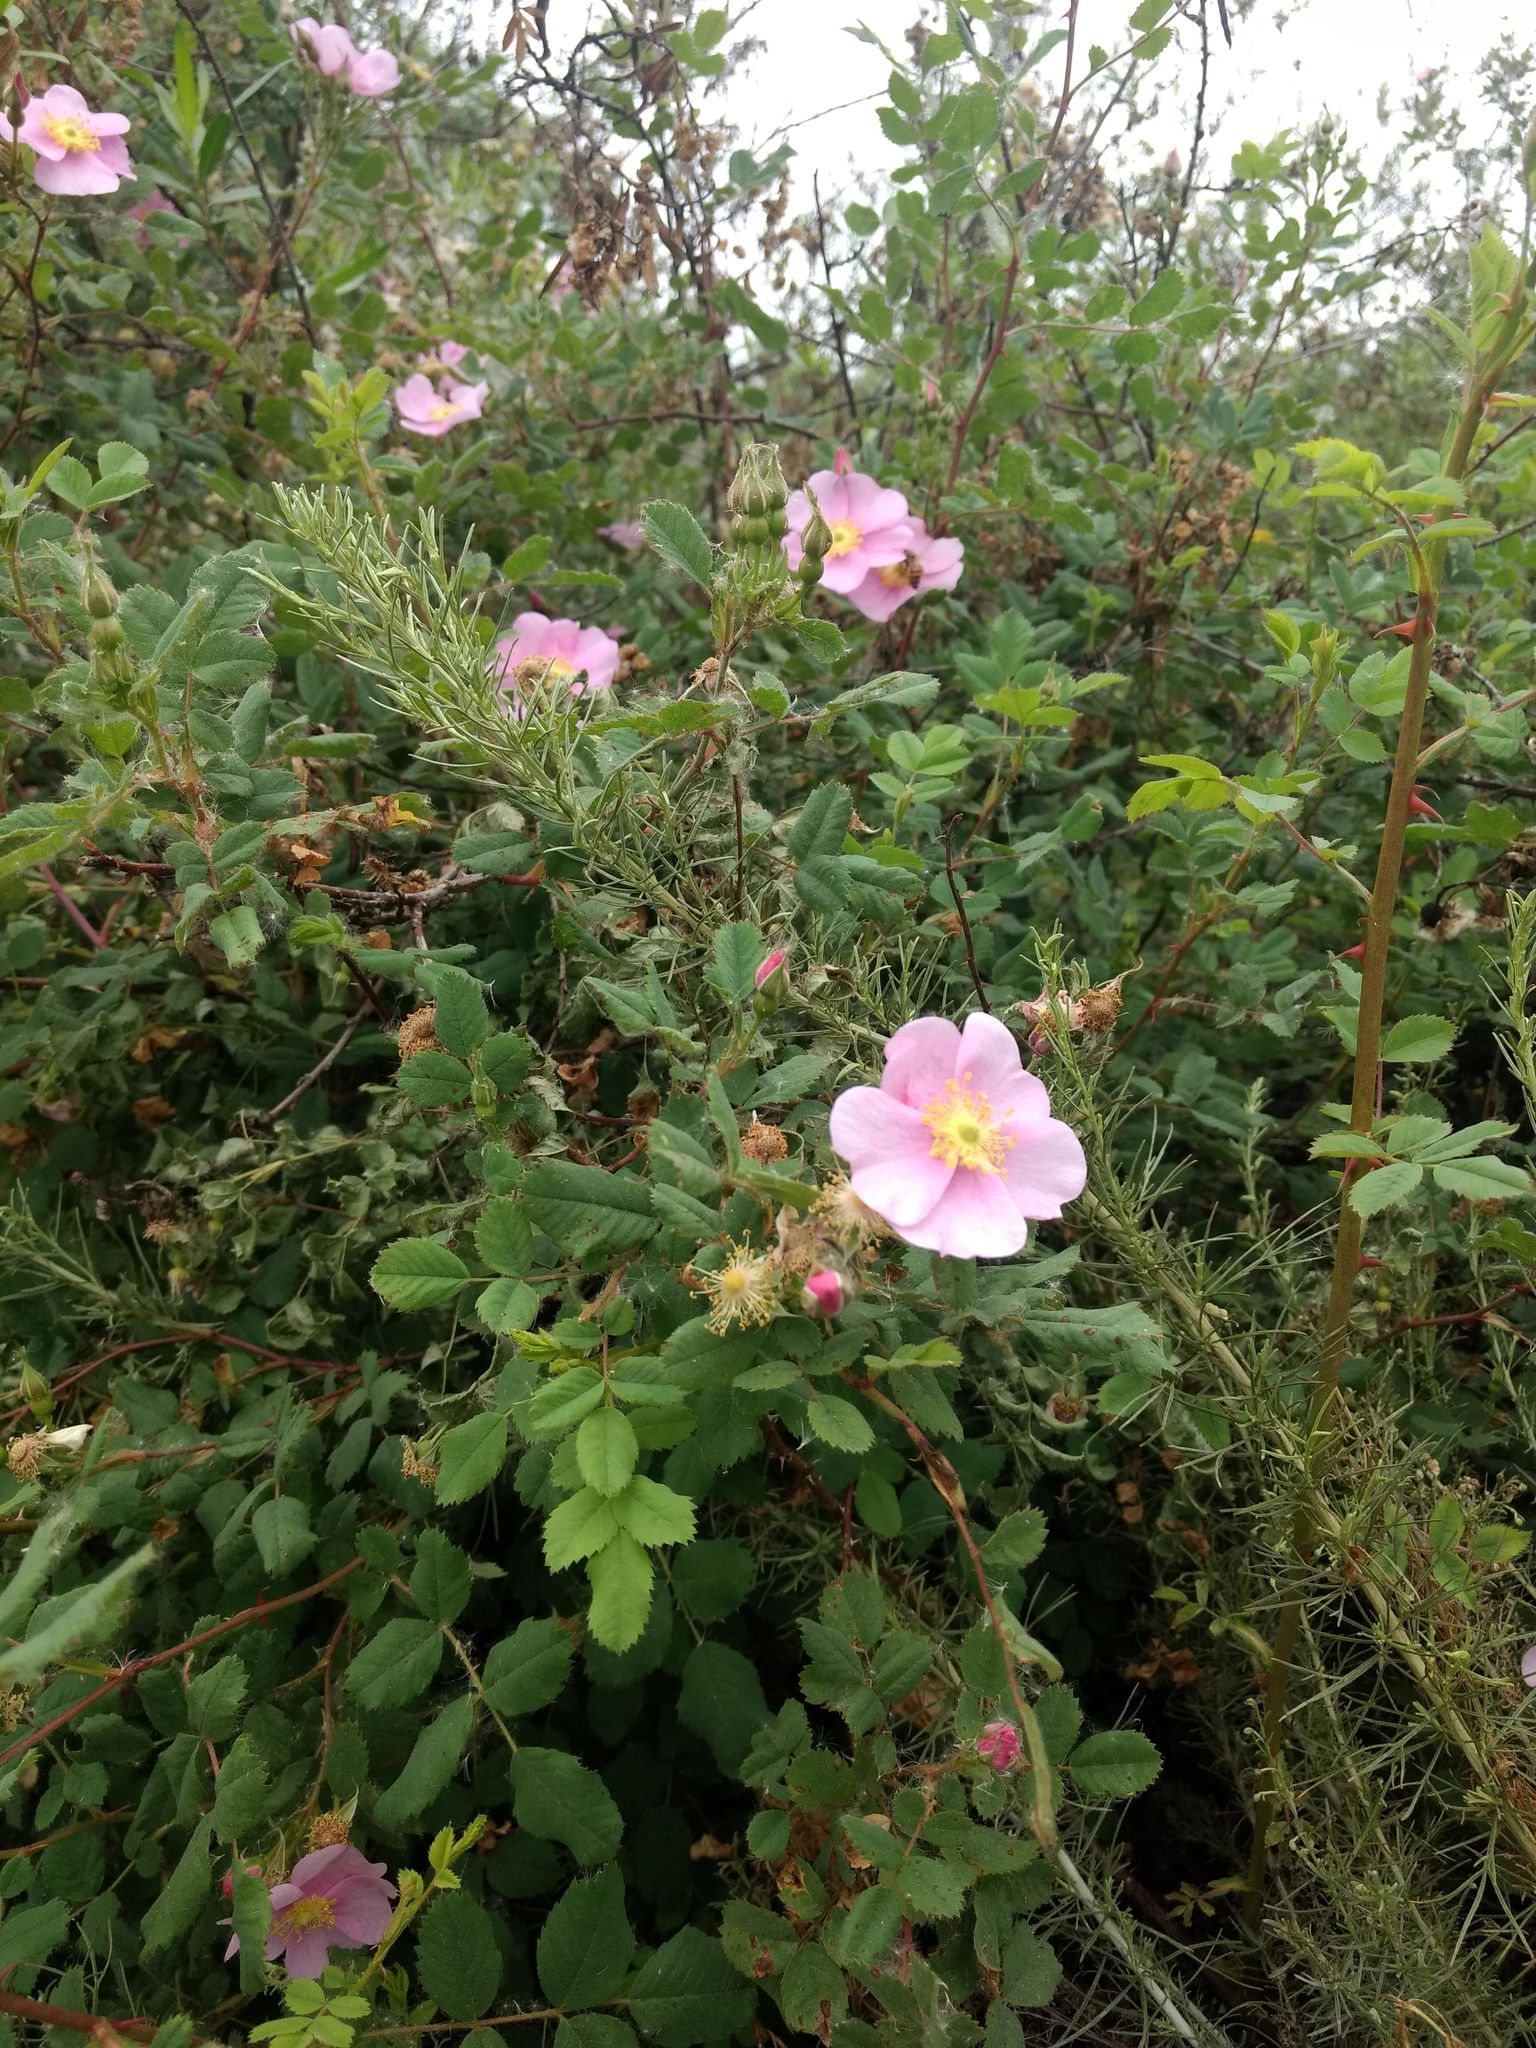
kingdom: Plantae
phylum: Tracheophyta
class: Magnoliopsida
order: Rosales
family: Rosaceae
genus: Rosa
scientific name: Rosa californica
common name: California rose
